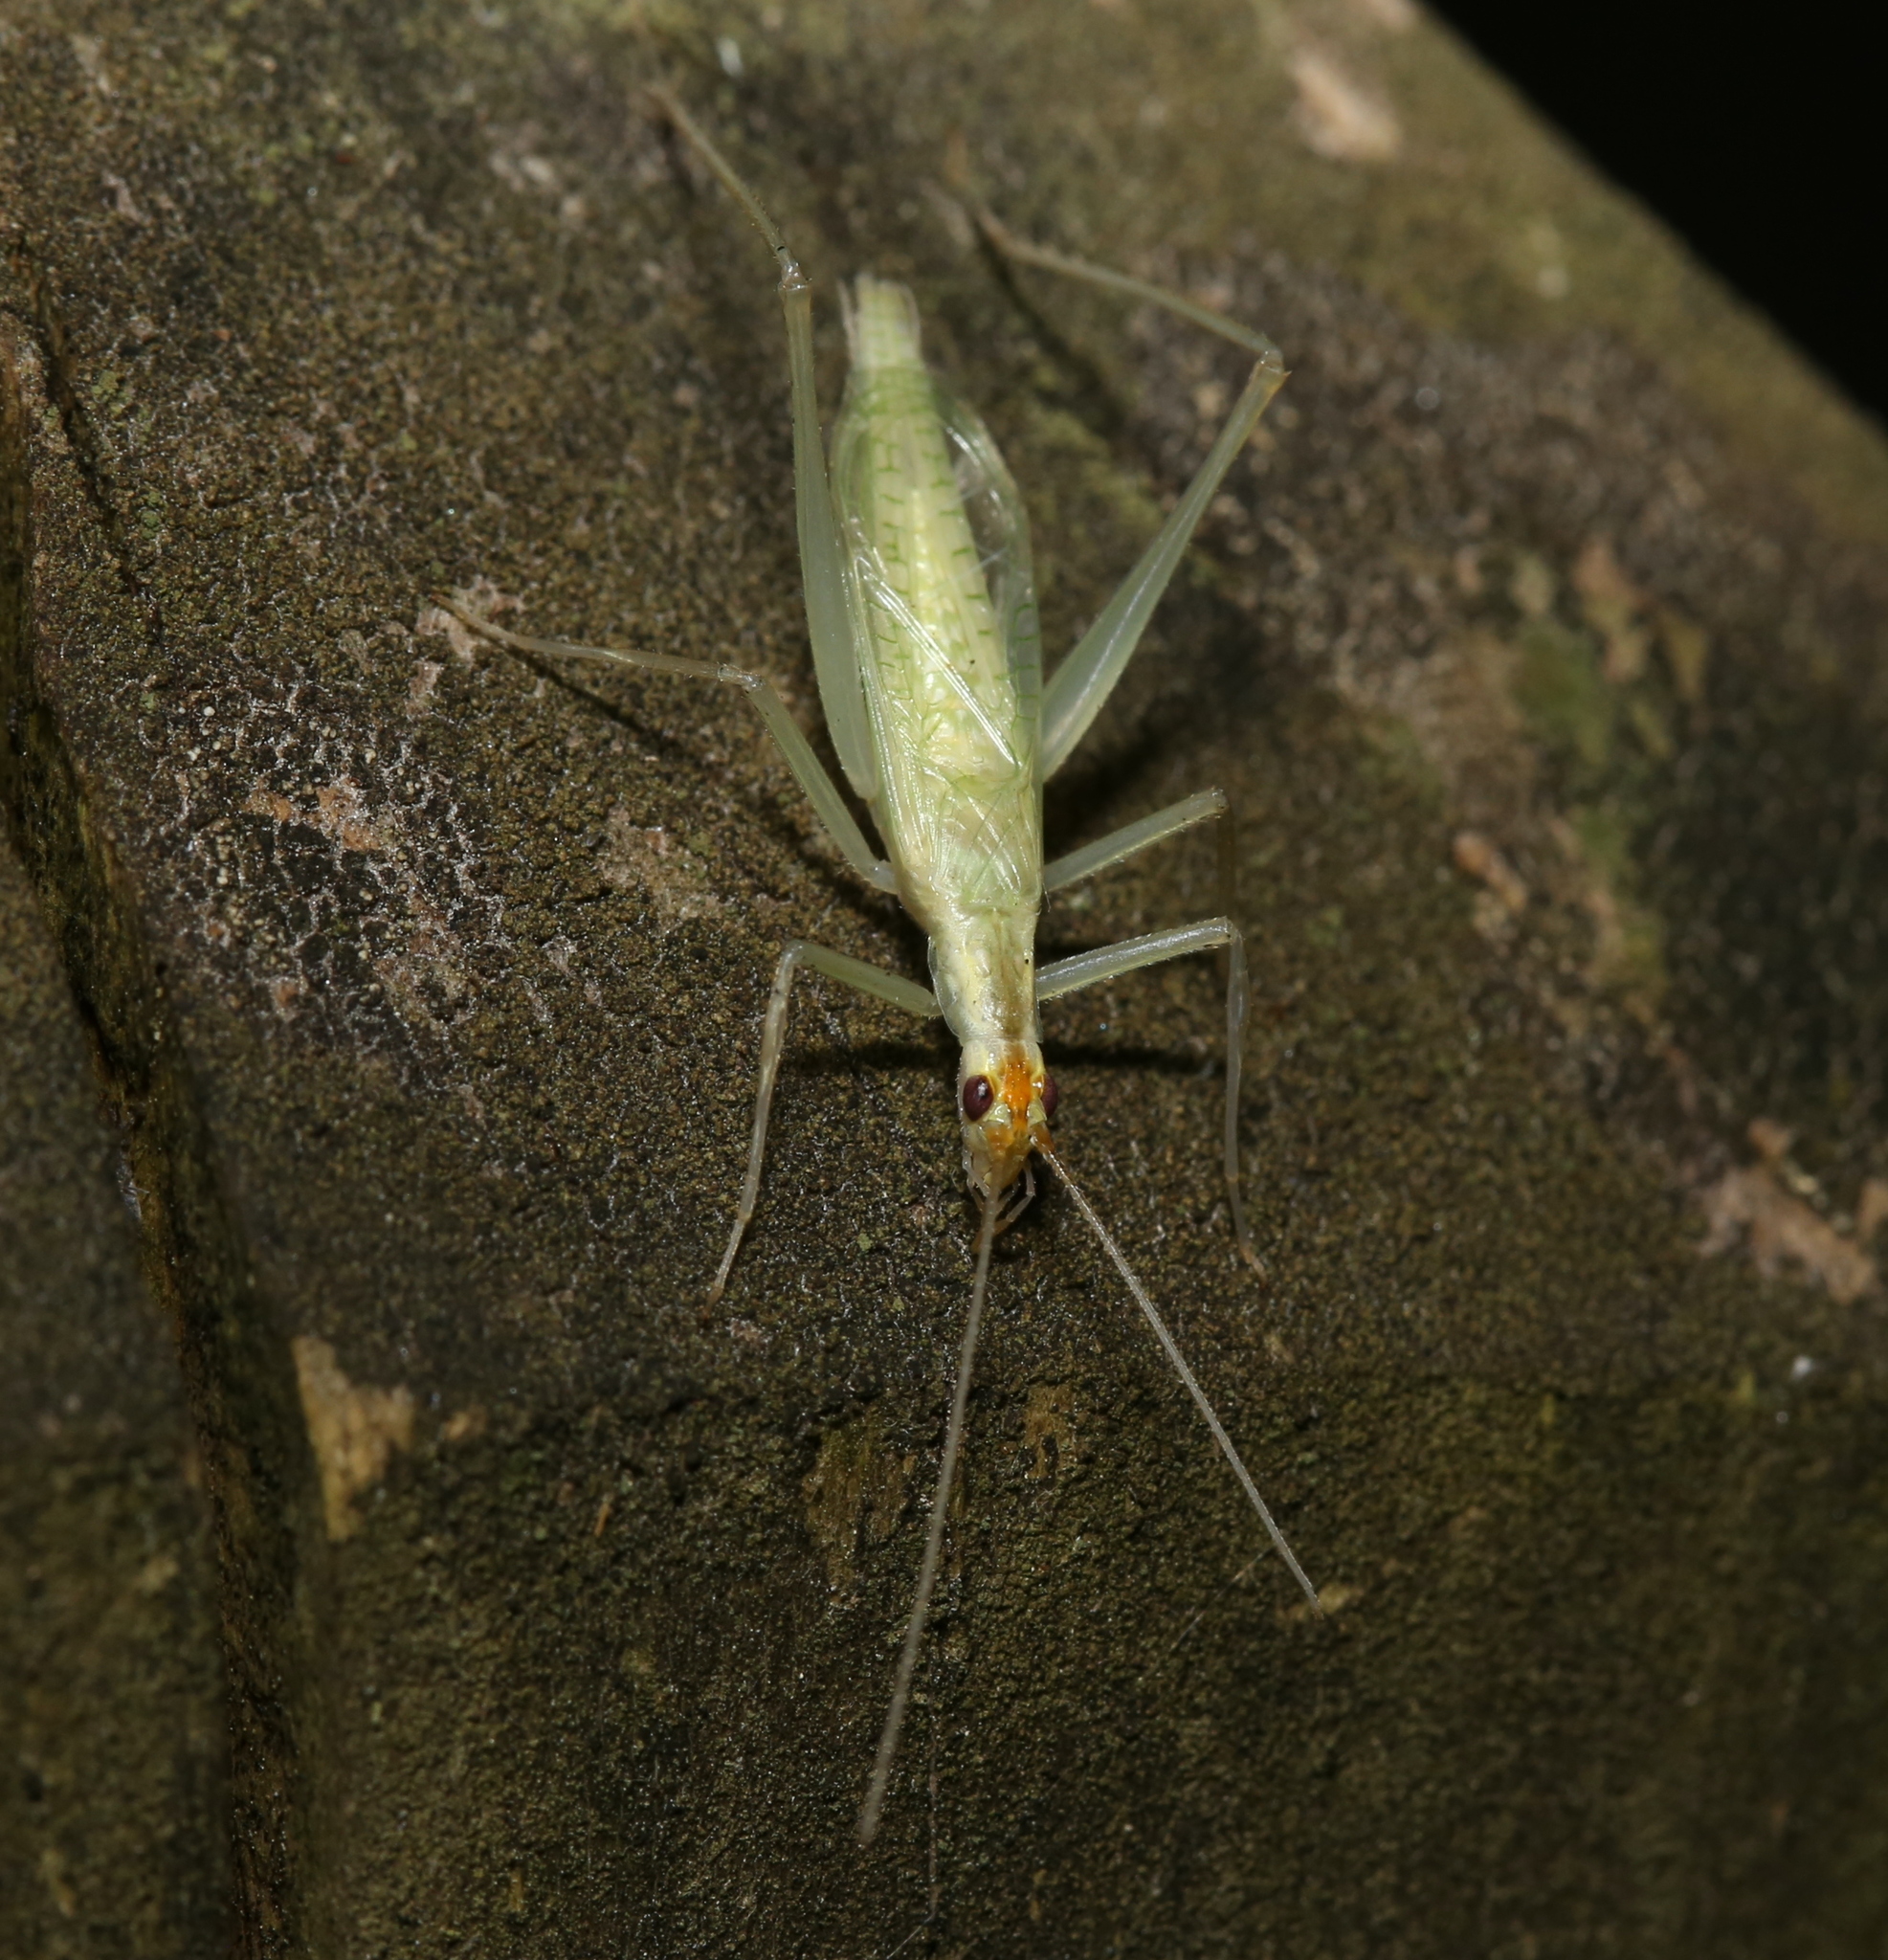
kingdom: Animalia
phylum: Arthropoda
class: Insecta
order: Orthoptera
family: Gryllidae
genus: Oecanthus
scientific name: Oecanthus niveus
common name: Narrow-winged tree cricket
